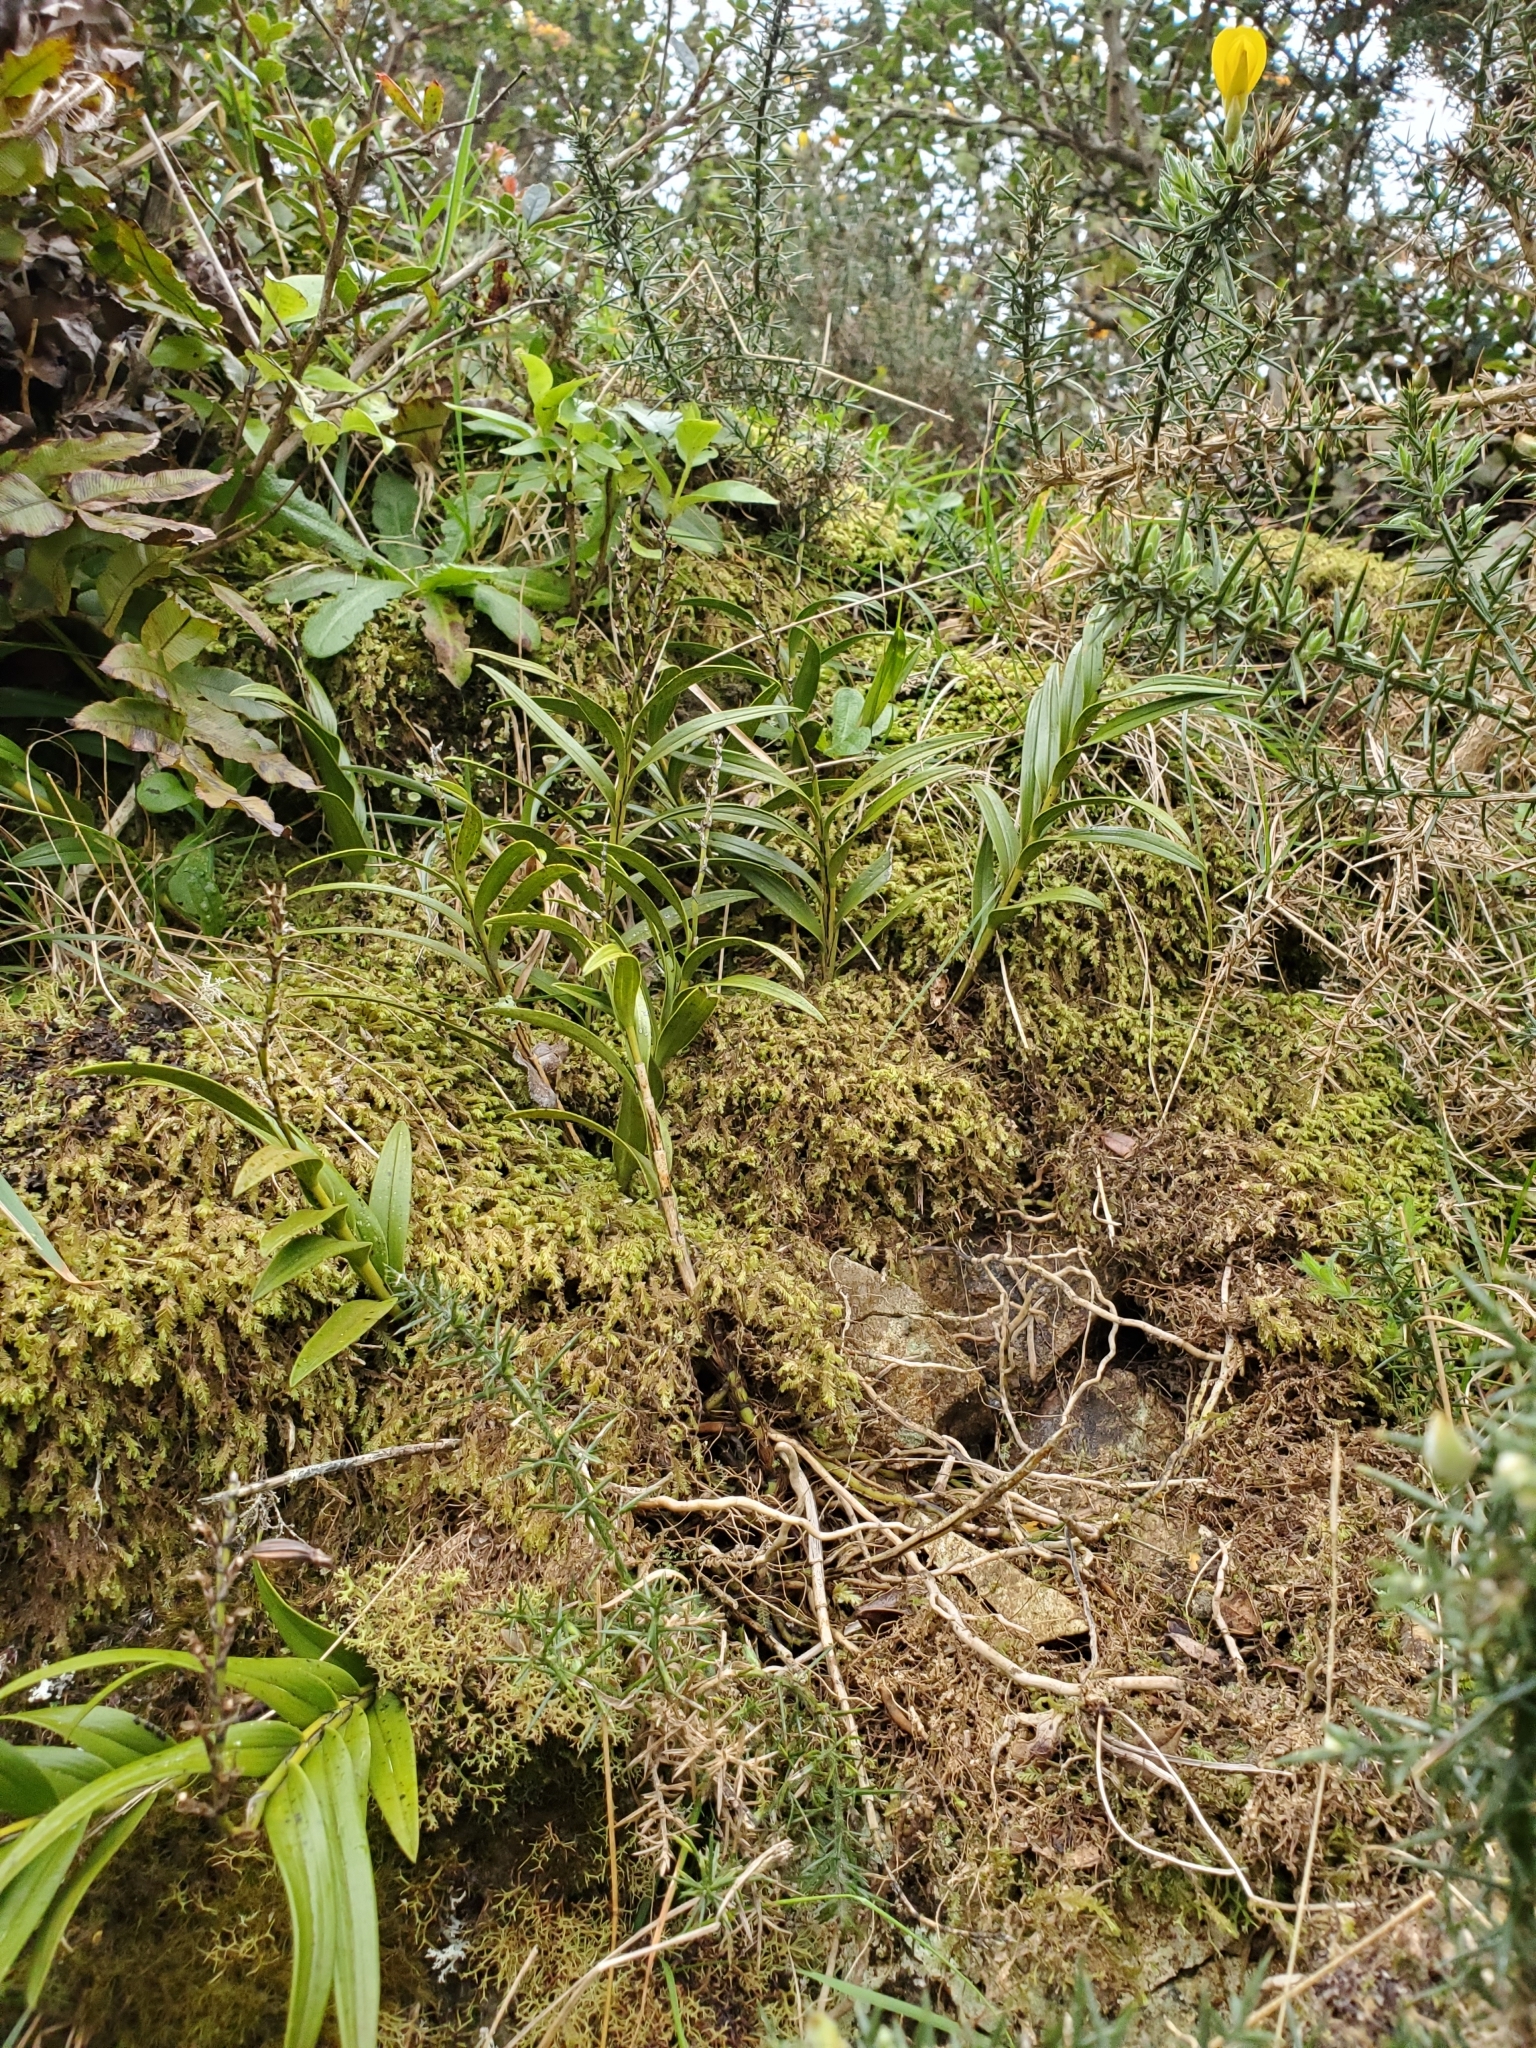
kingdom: Plantae
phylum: Tracheophyta
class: Liliopsida
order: Asparagales
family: Orchidaceae
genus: Earina
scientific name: Earina autumnalis
